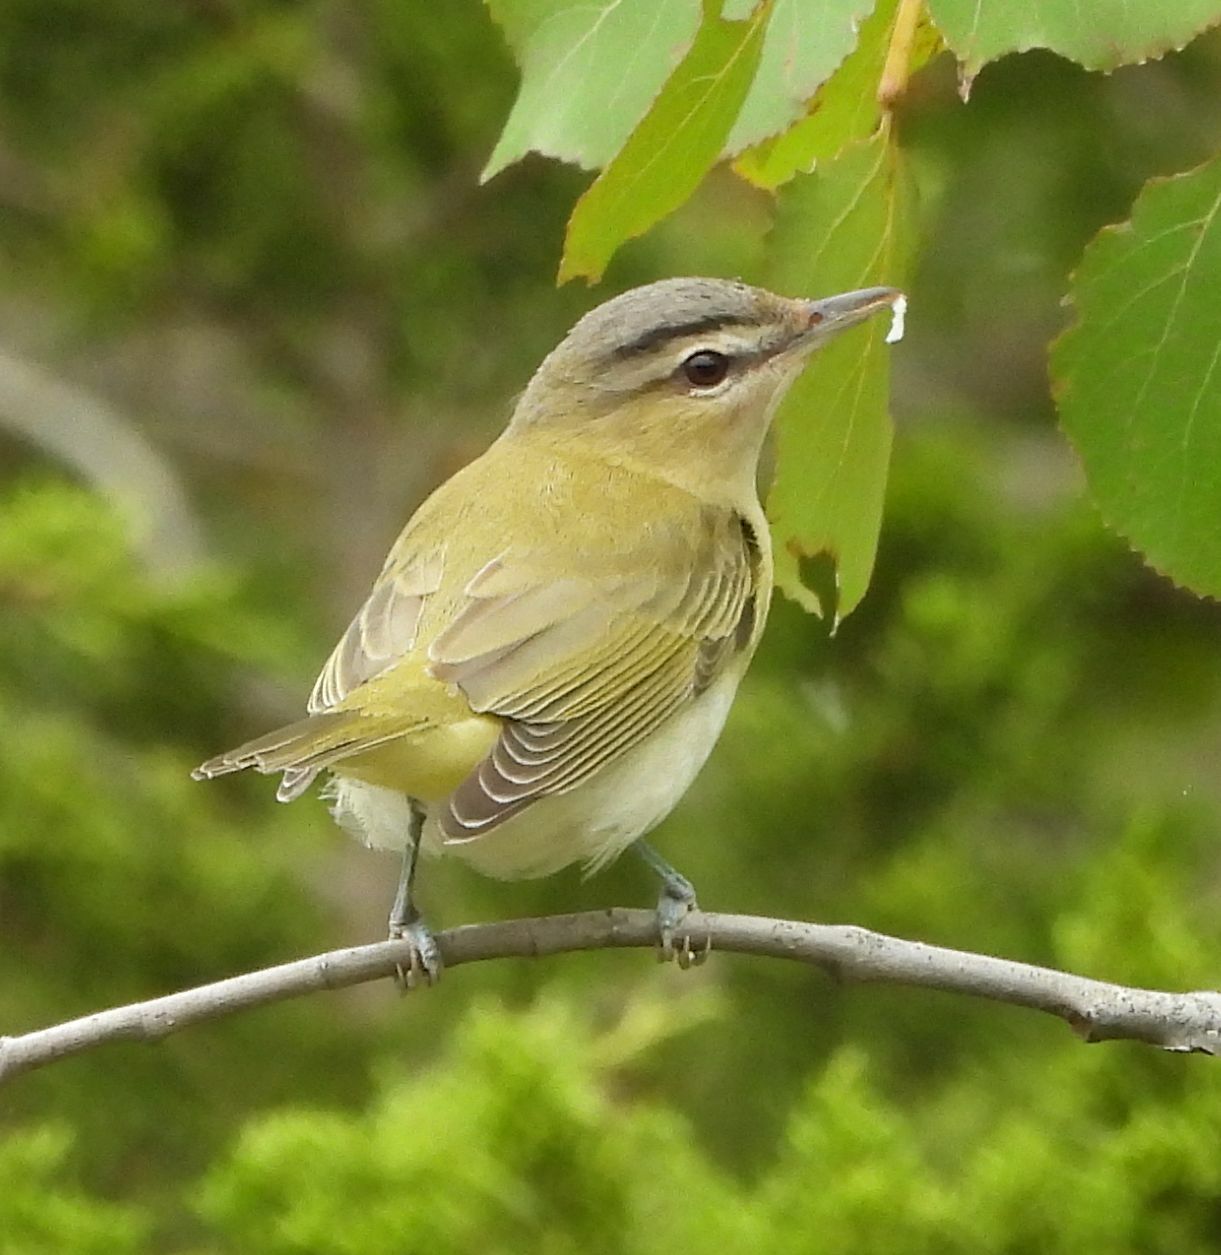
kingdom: Animalia
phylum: Chordata
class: Aves
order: Passeriformes
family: Vireonidae
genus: Vireo
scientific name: Vireo olivaceus
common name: Red-eyed vireo
